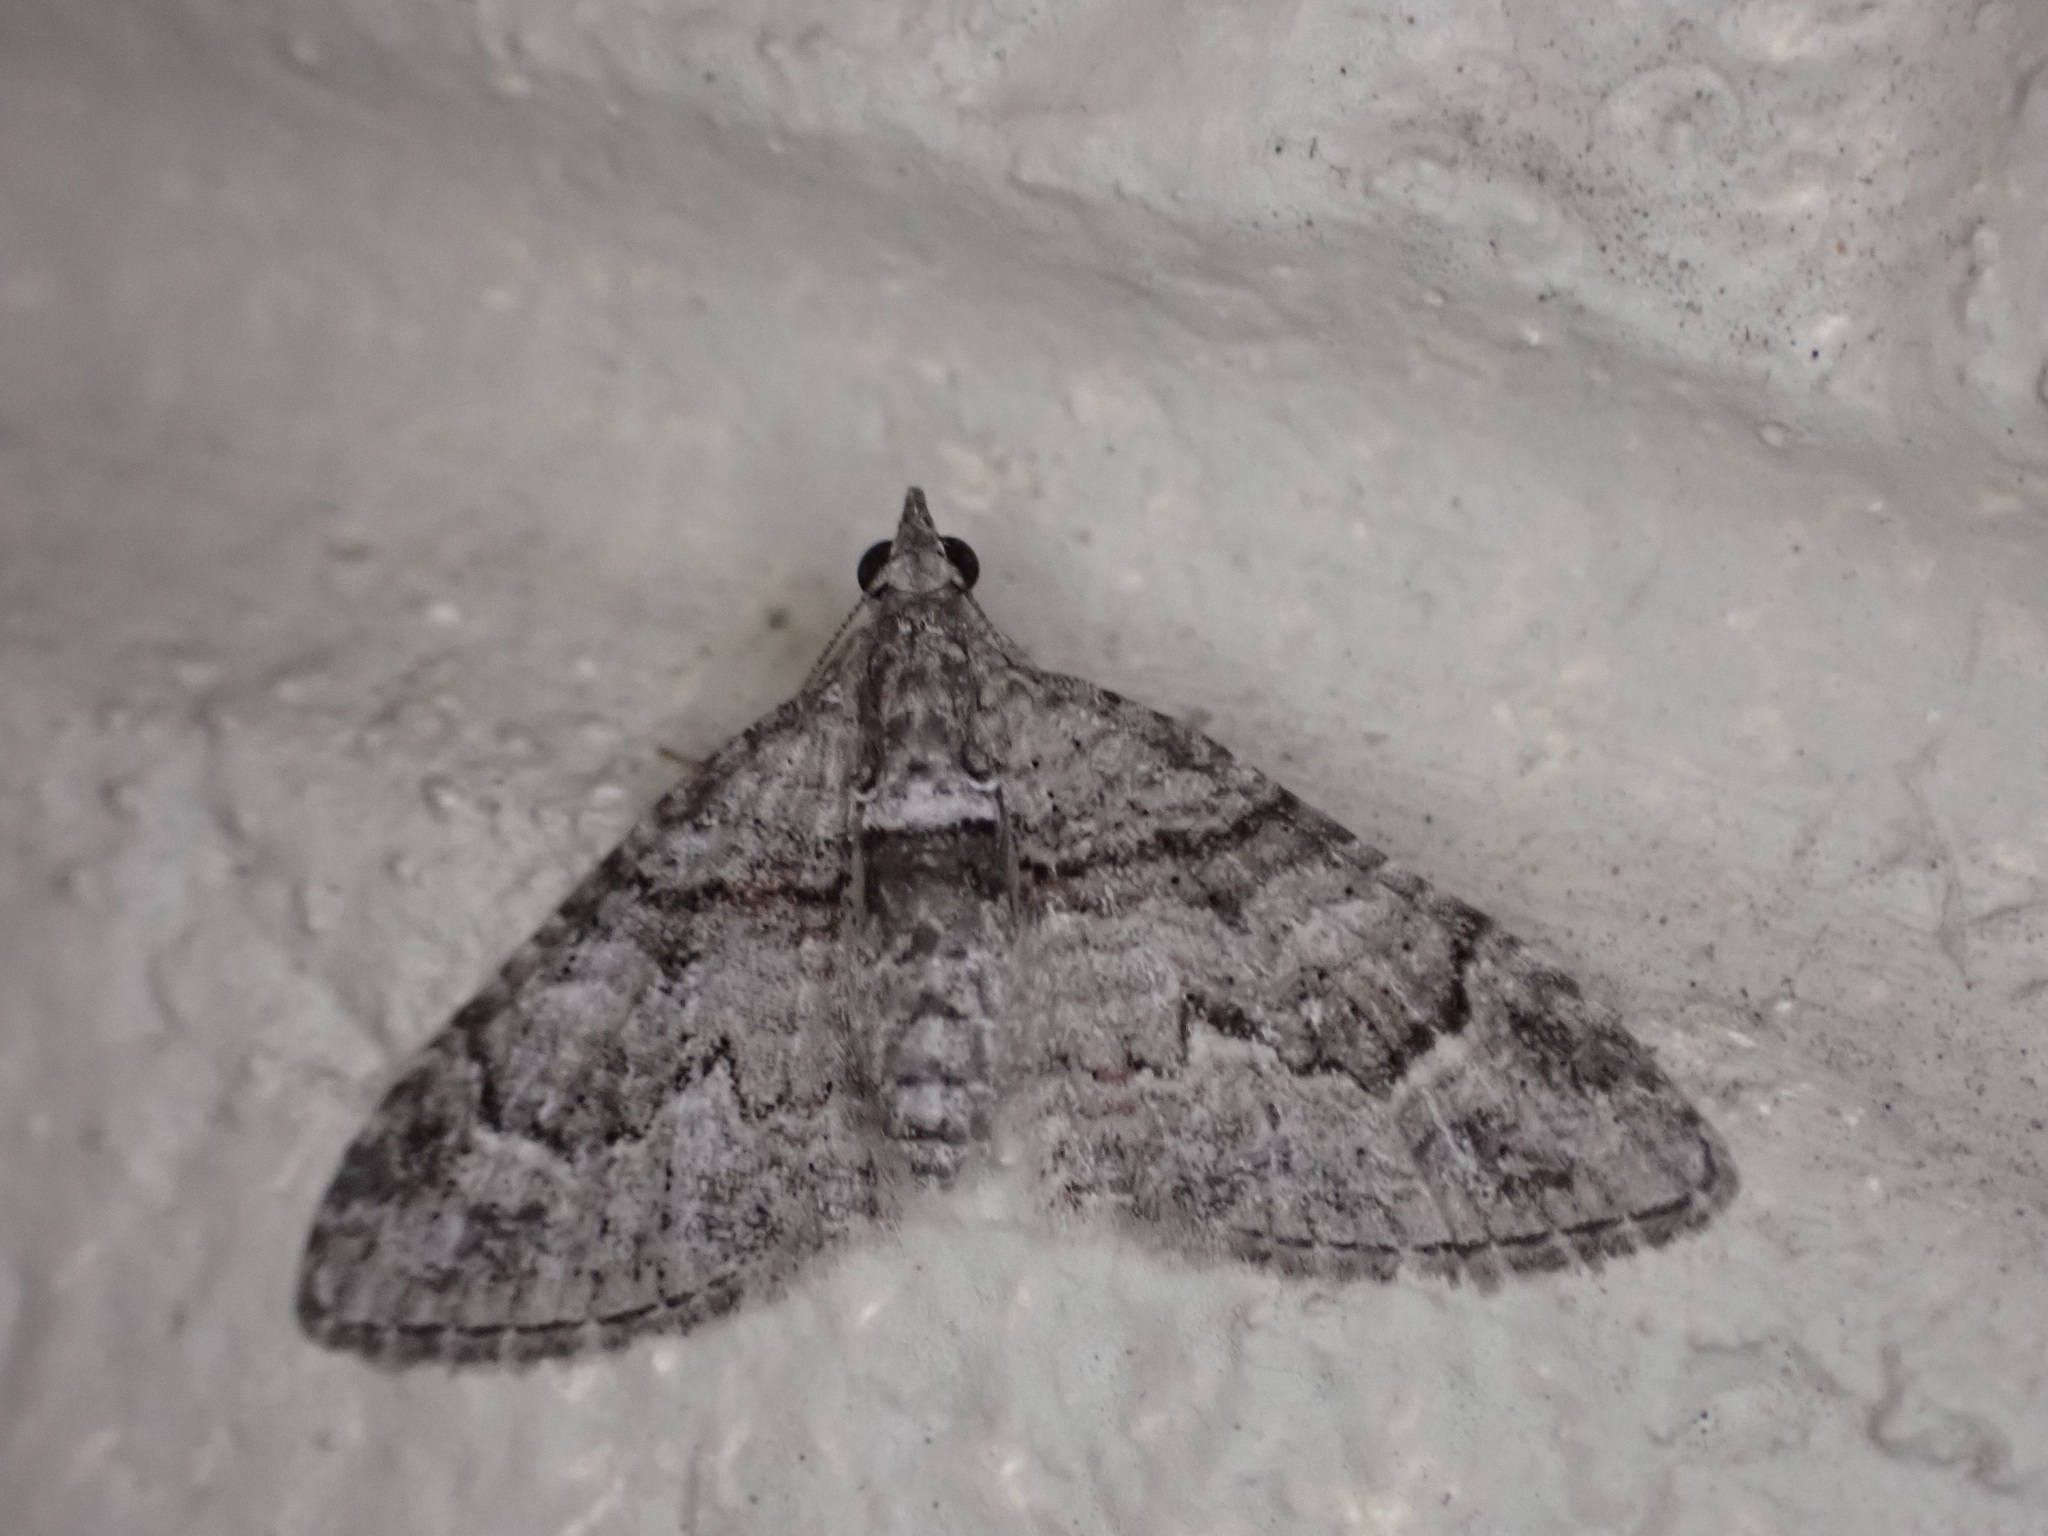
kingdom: Animalia
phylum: Arthropoda
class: Insecta
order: Lepidoptera
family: Geometridae
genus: Phrissogonus
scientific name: Phrissogonus laticostata
